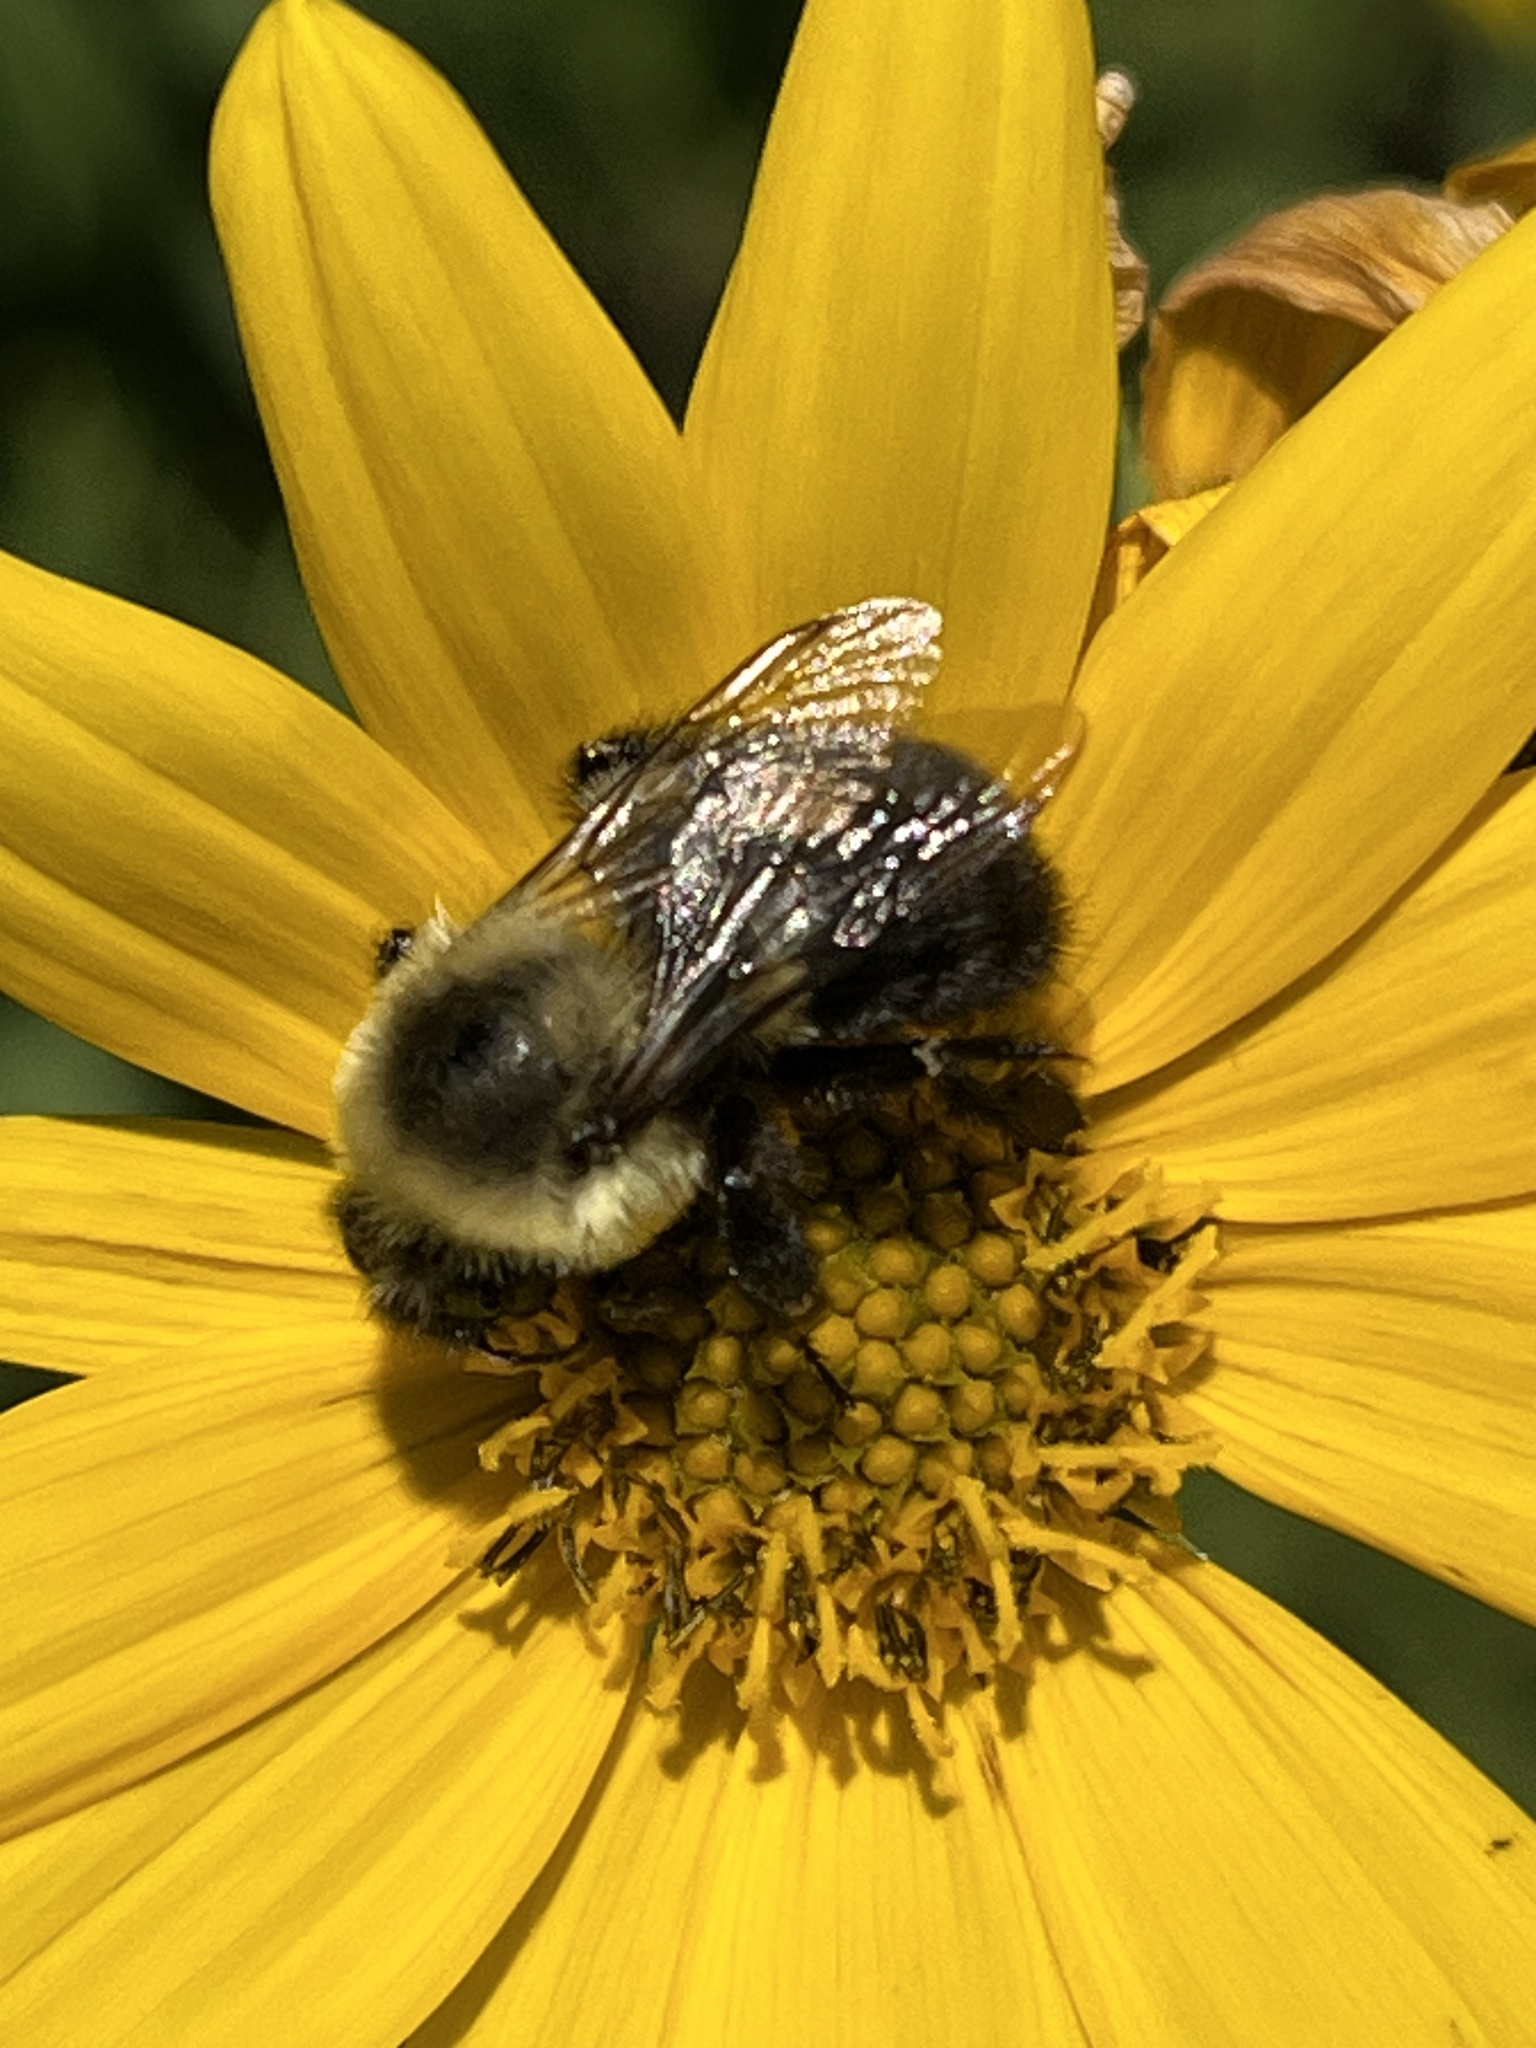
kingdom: Animalia
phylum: Arthropoda
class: Insecta
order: Hymenoptera
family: Apidae
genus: Bombus
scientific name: Bombus impatiens
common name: Common eastern bumble bee
